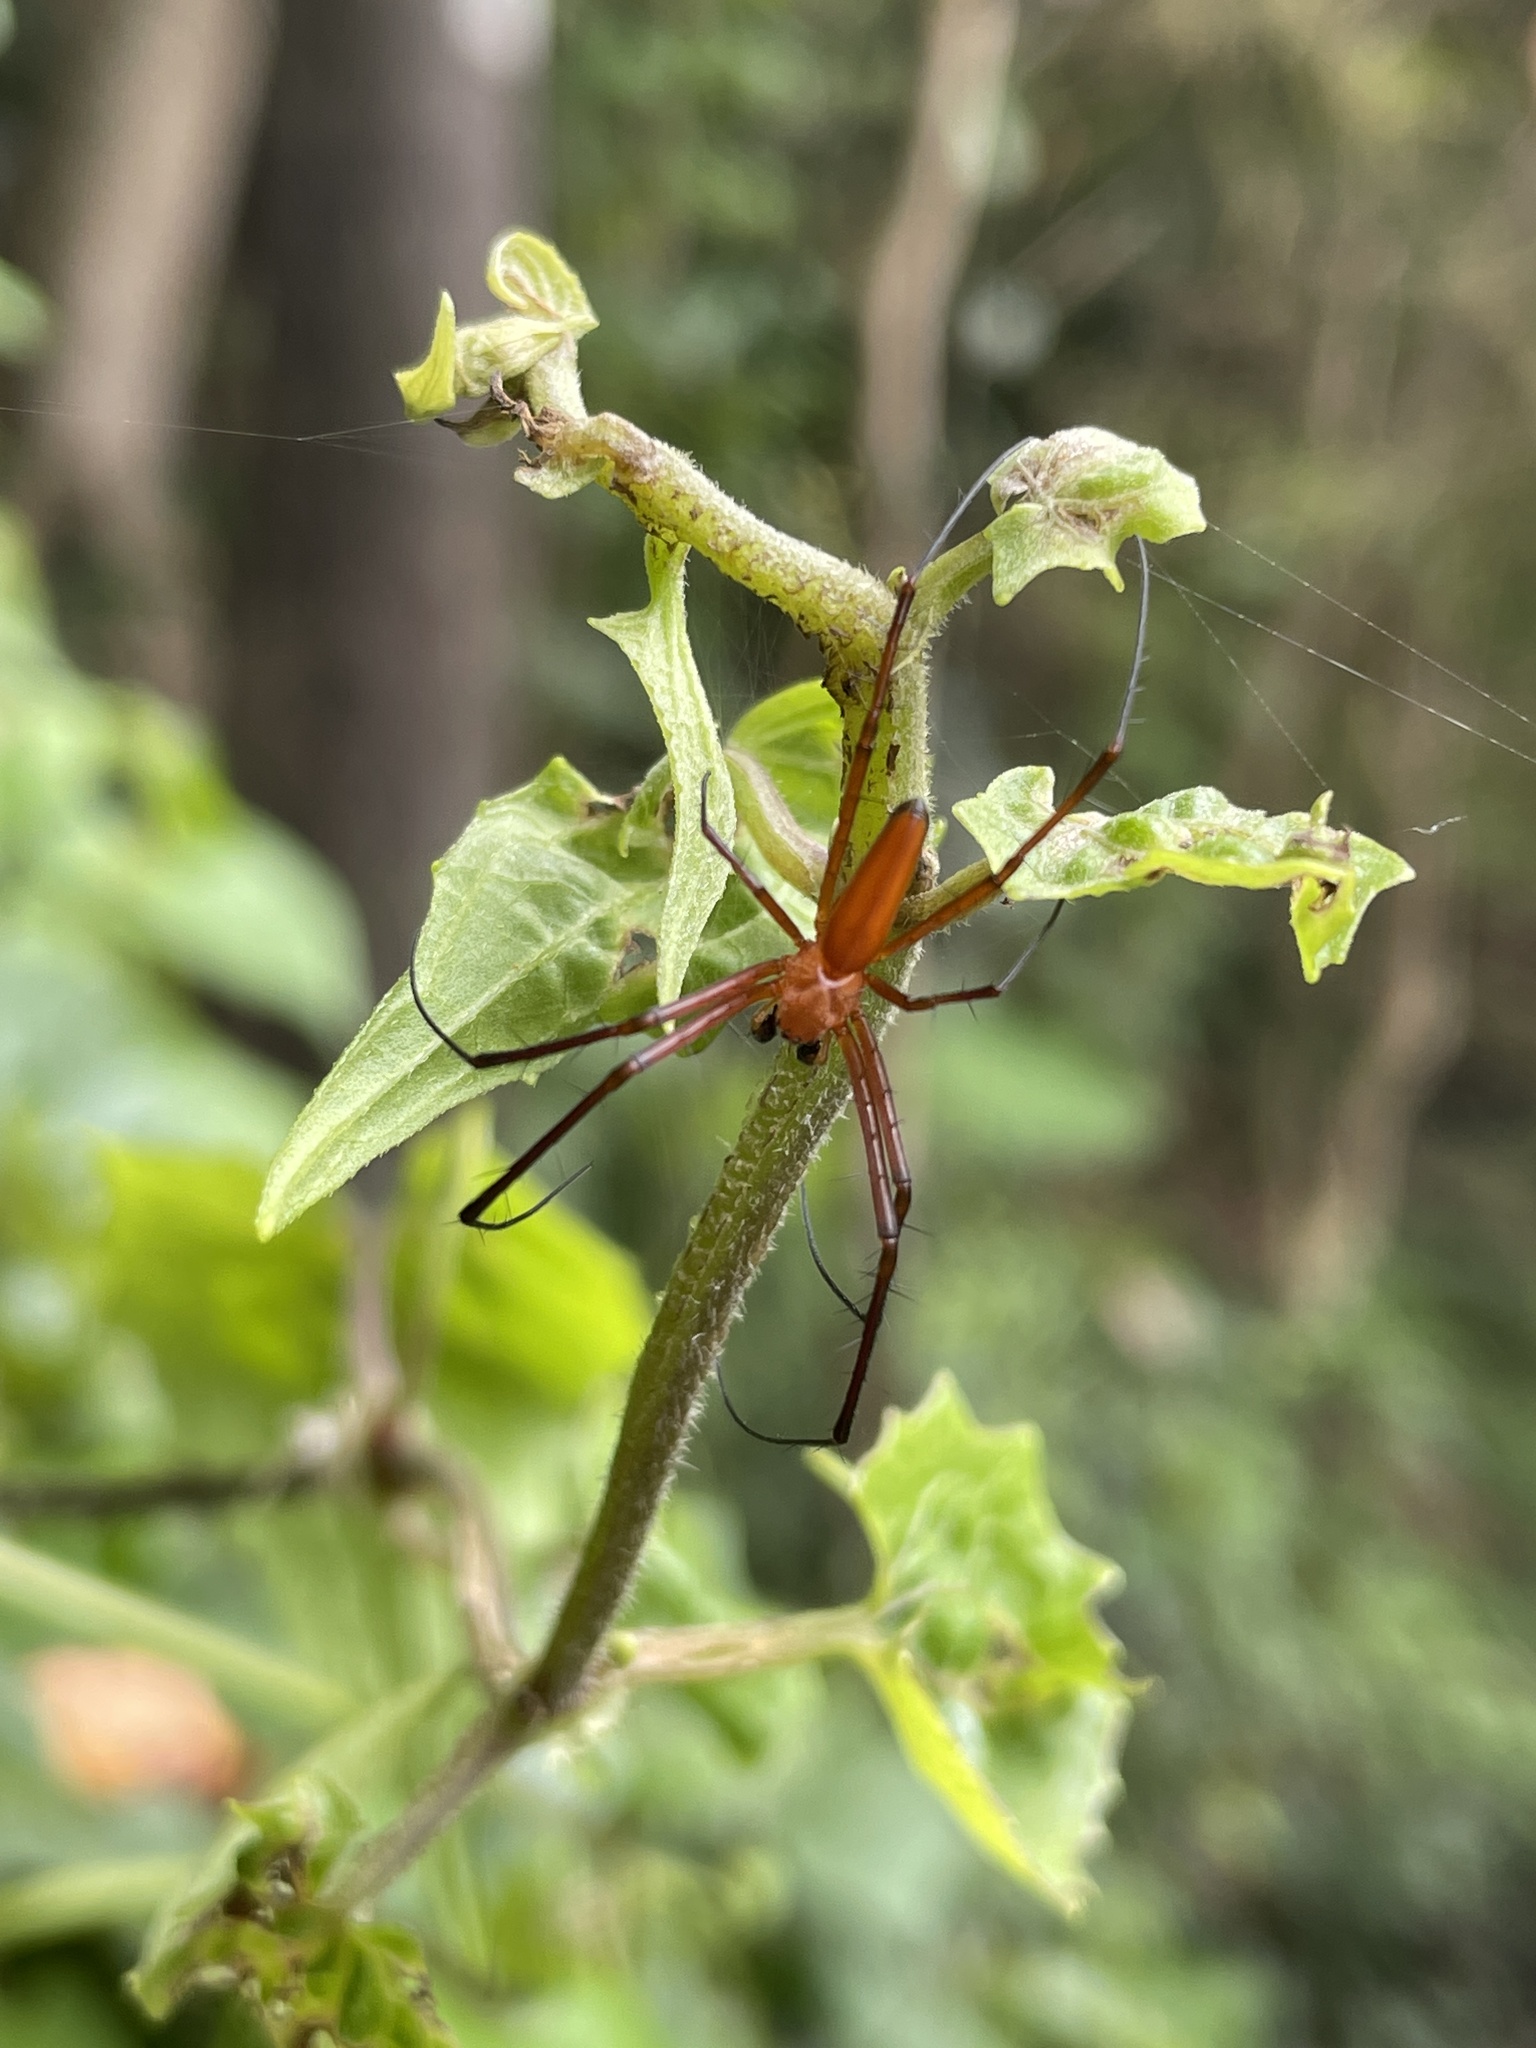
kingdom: Animalia
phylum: Arthropoda
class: Arachnida
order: Araneae
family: Araneidae
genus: Nephila
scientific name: Nephila pilipes
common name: Giant golden orb weaver
